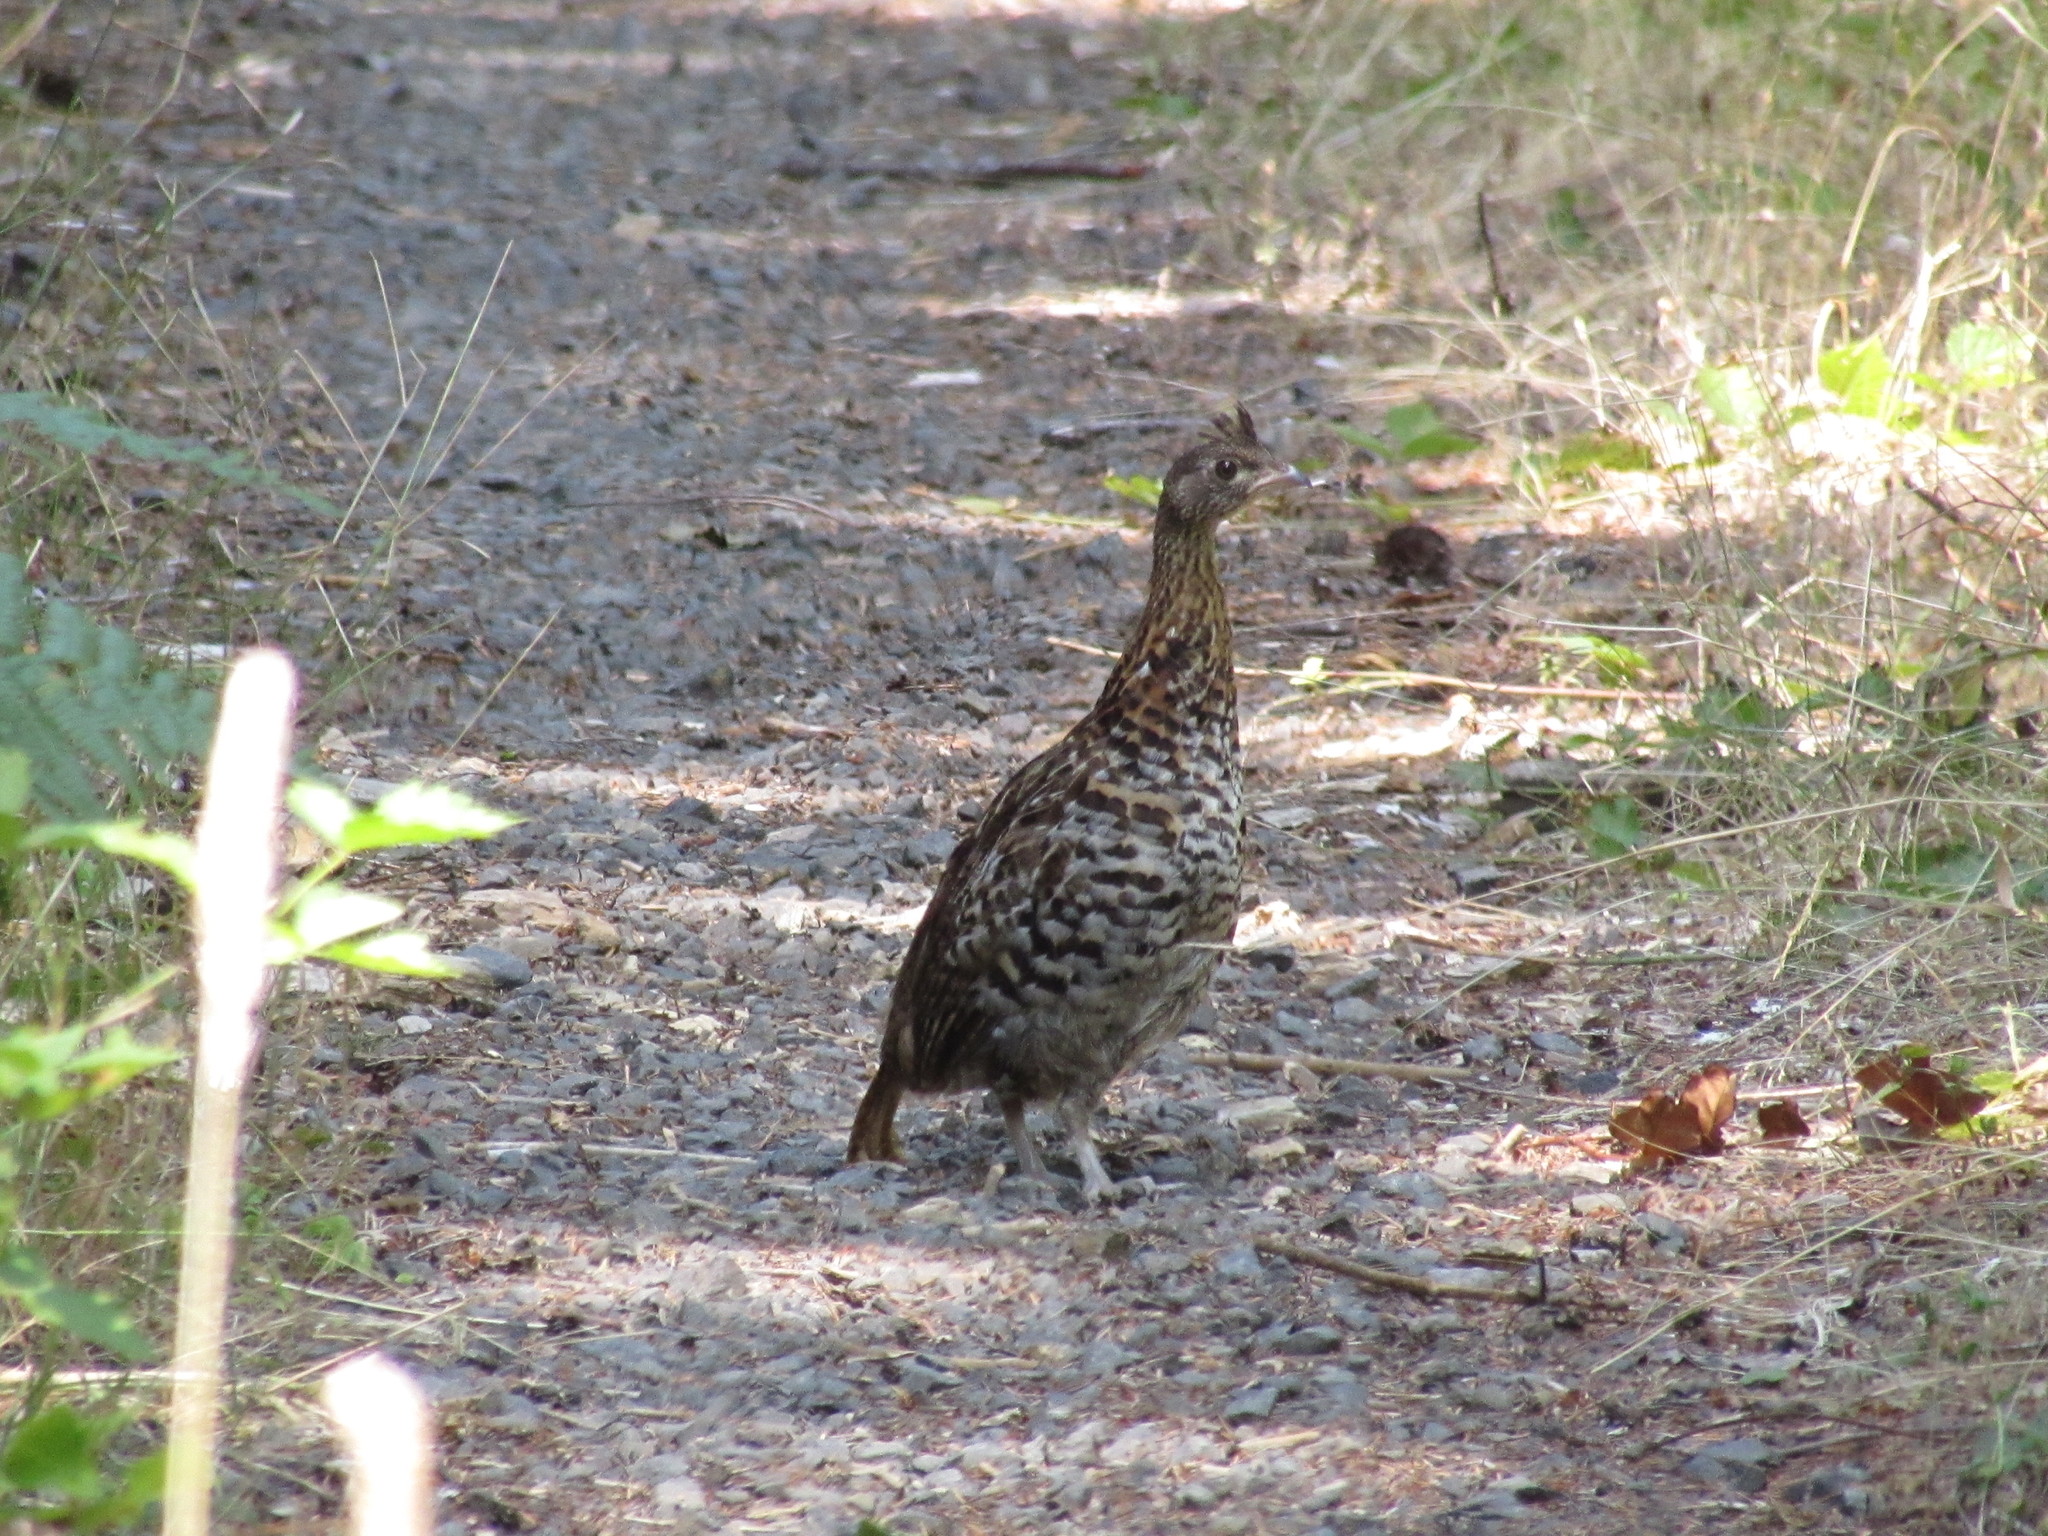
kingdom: Animalia
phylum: Chordata
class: Aves
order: Galliformes
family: Phasianidae
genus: Bonasa
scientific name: Bonasa umbellus
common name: Ruffed grouse
